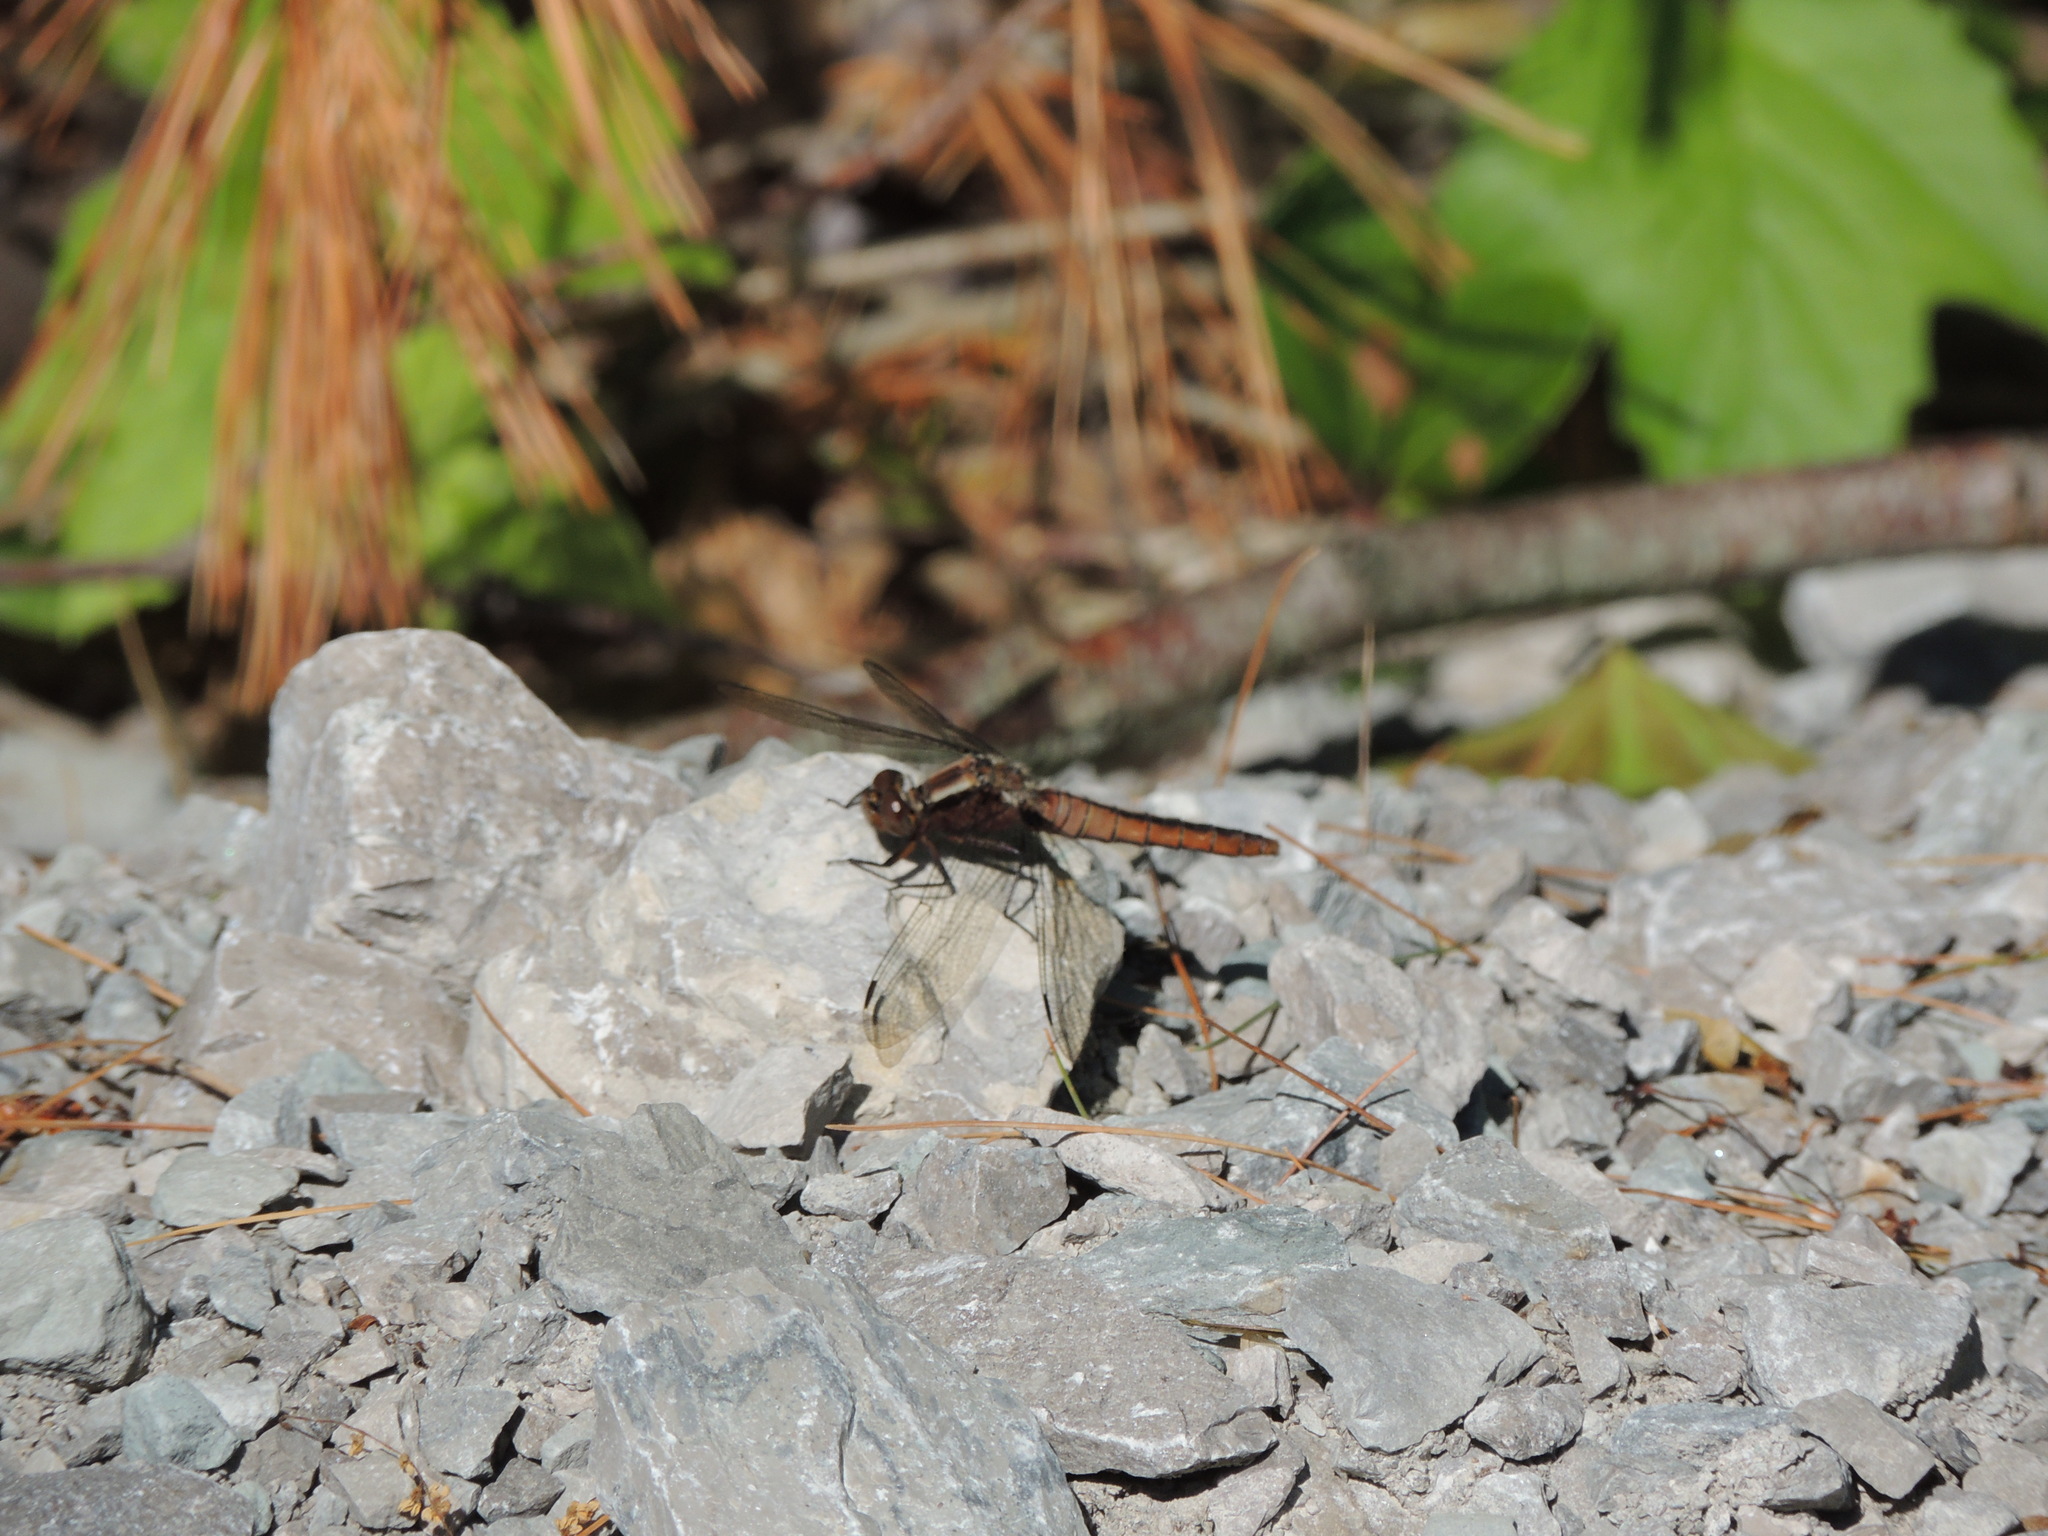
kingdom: Animalia
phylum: Arthropoda
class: Insecta
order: Odonata
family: Libellulidae
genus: Ladona
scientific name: Ladona julia
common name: Chalk-fronted corporal
